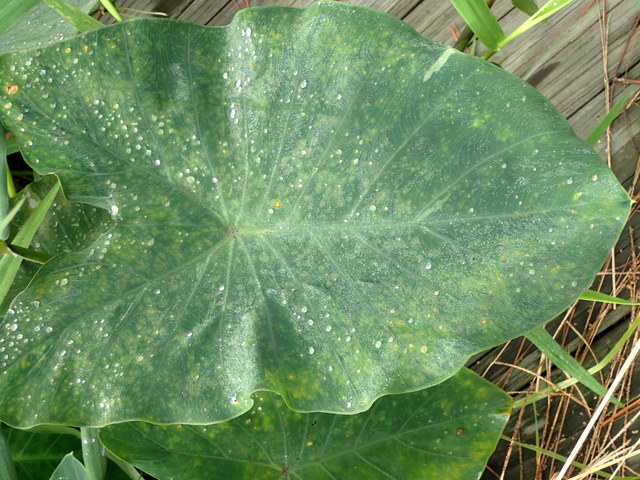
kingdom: Animalia
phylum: Arthropoda
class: Insecta
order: Hemiptera
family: Delphacidae
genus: Tarophagus
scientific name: Tarophagus colocasiae
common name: Taro planthopper
